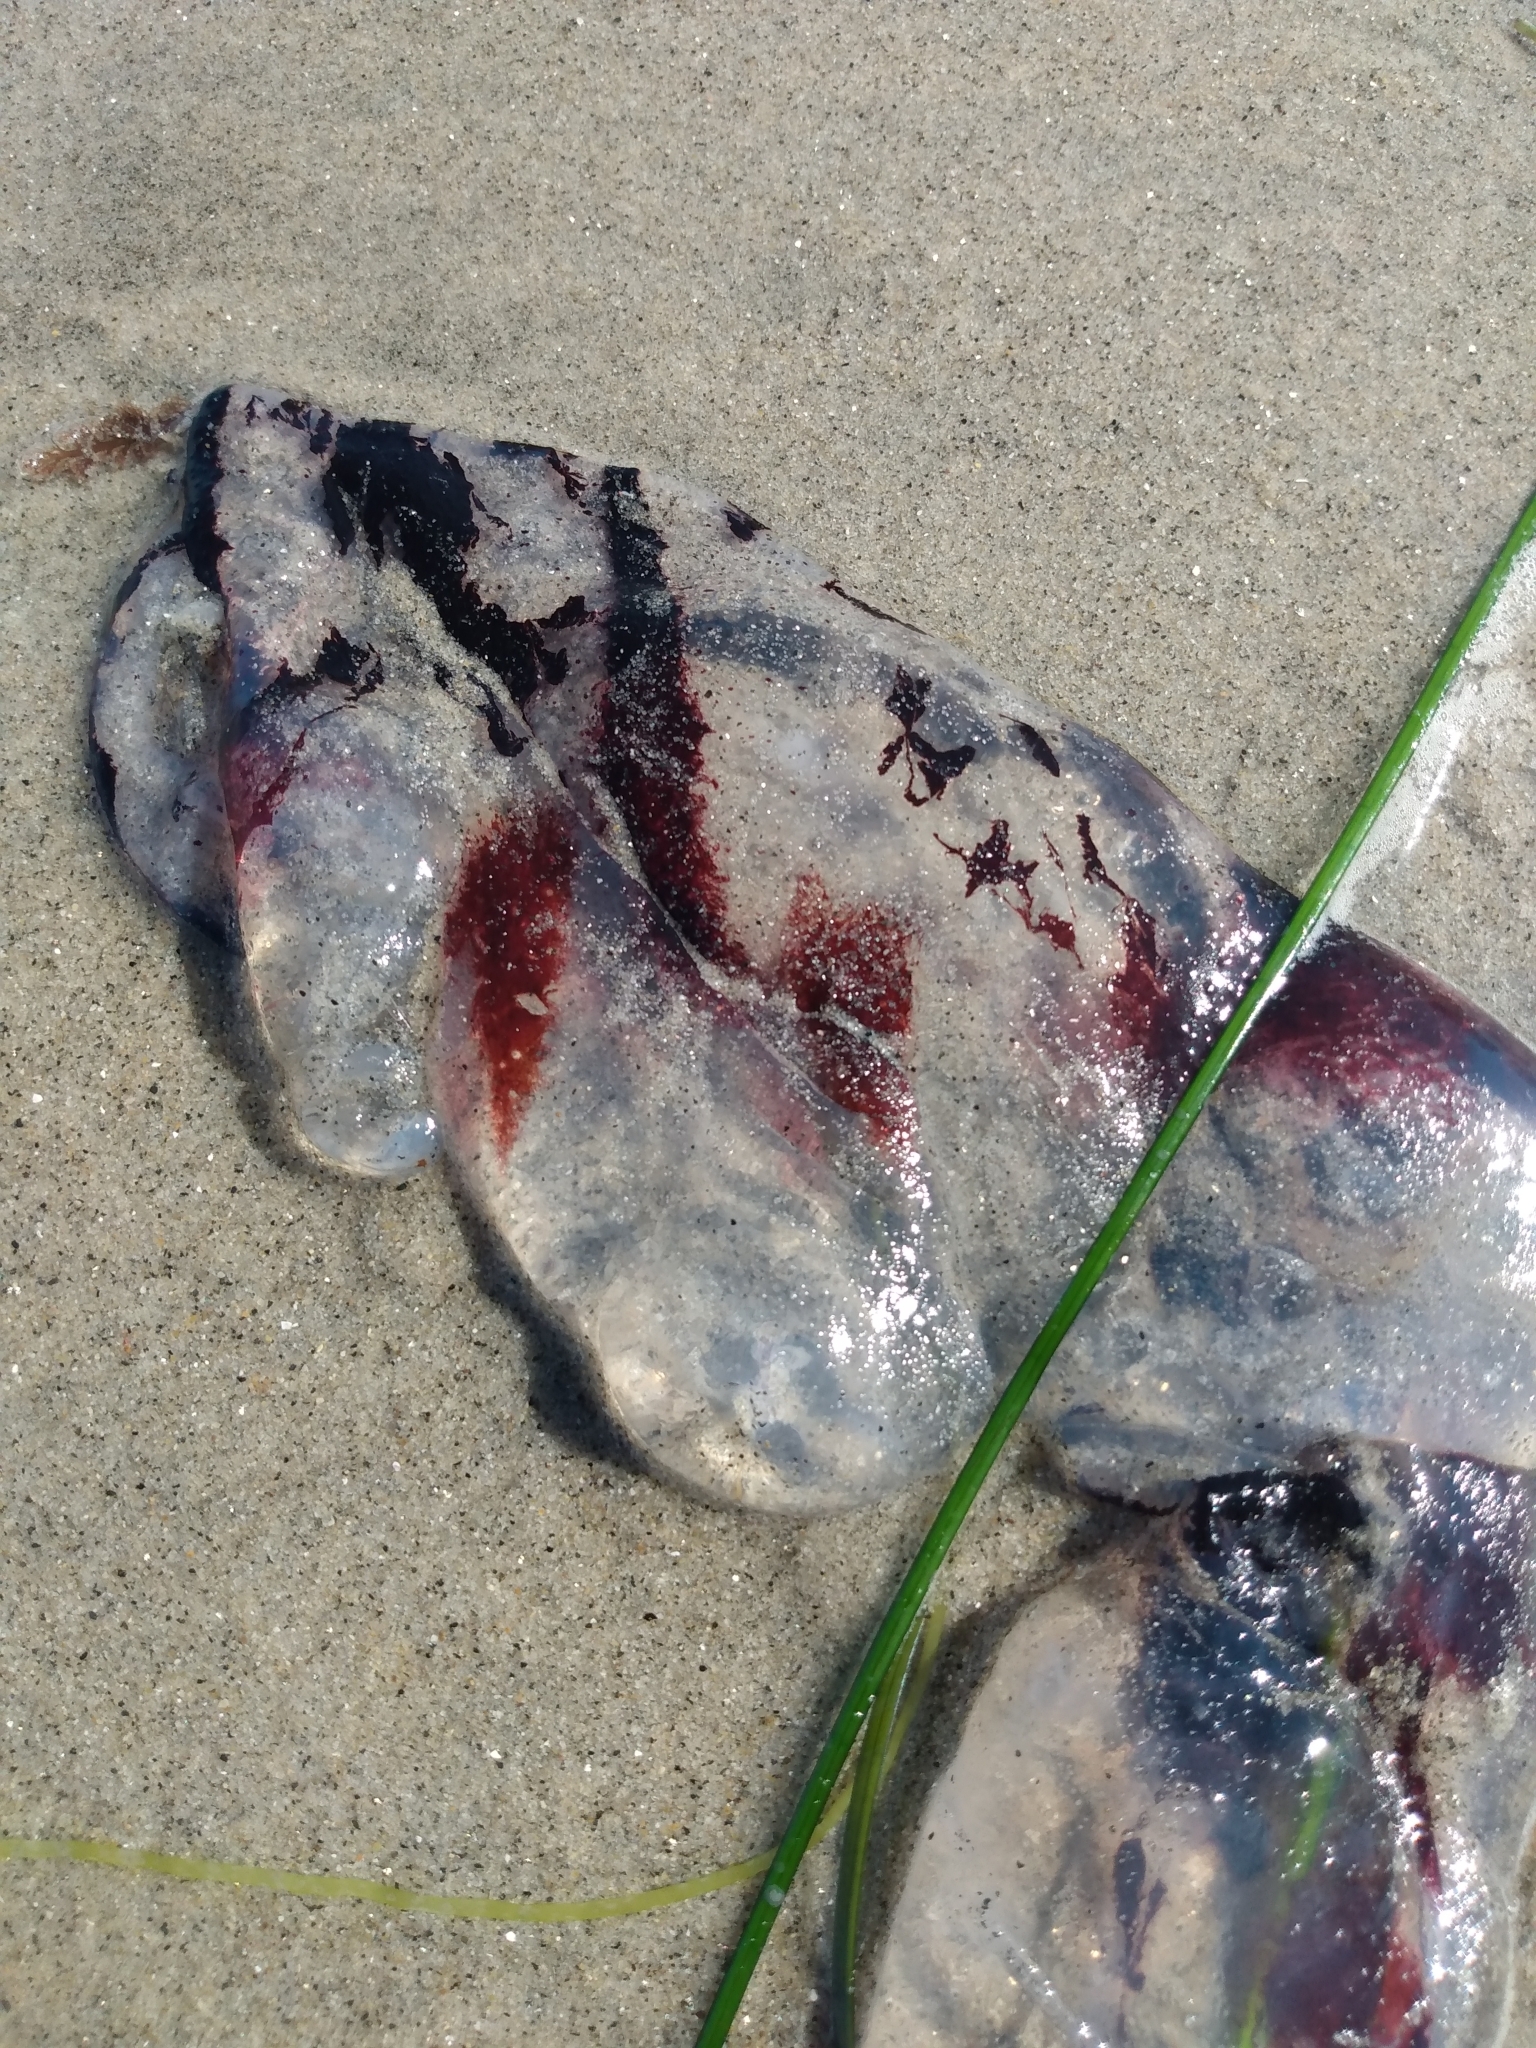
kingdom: Animalia
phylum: Cnidaria
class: Scyphozoa
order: Semaeostomeae
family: Pelagiidae
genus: Chrysaora
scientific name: Chrysaora colorata
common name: Purple-striped jellyfish
